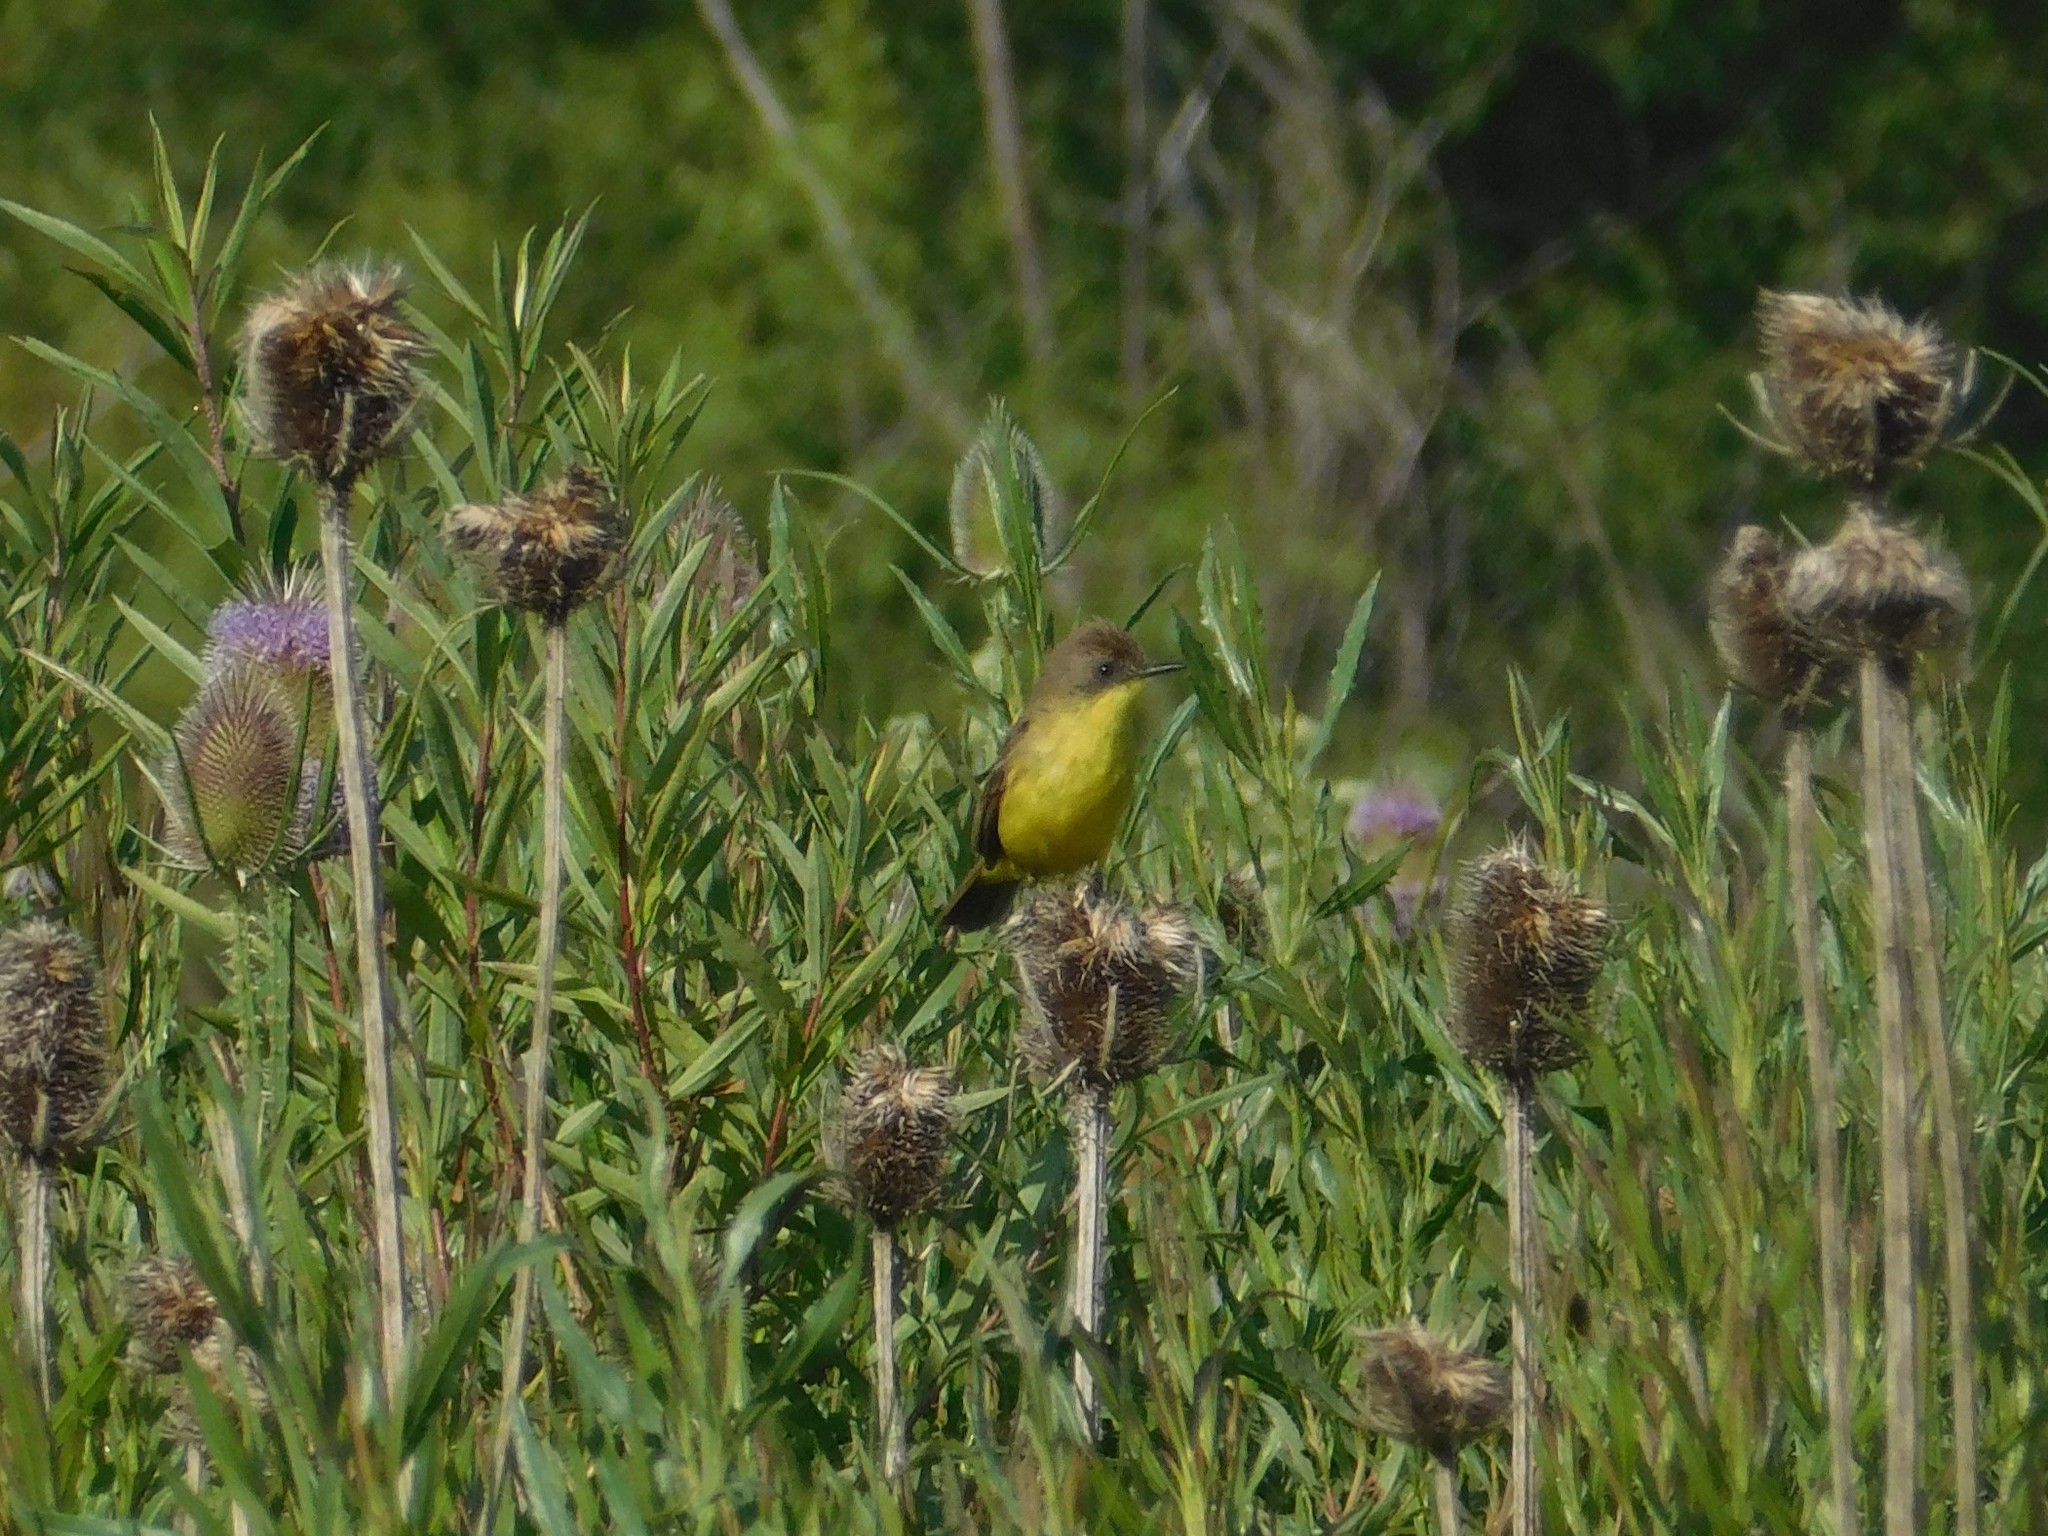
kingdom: Animalia
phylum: Chordata
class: Aves
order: Passeriformes
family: Tyrannidae
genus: Pseudocolopteryx
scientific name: Pseudocolopteryx flaviventris
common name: Warbling doradito
